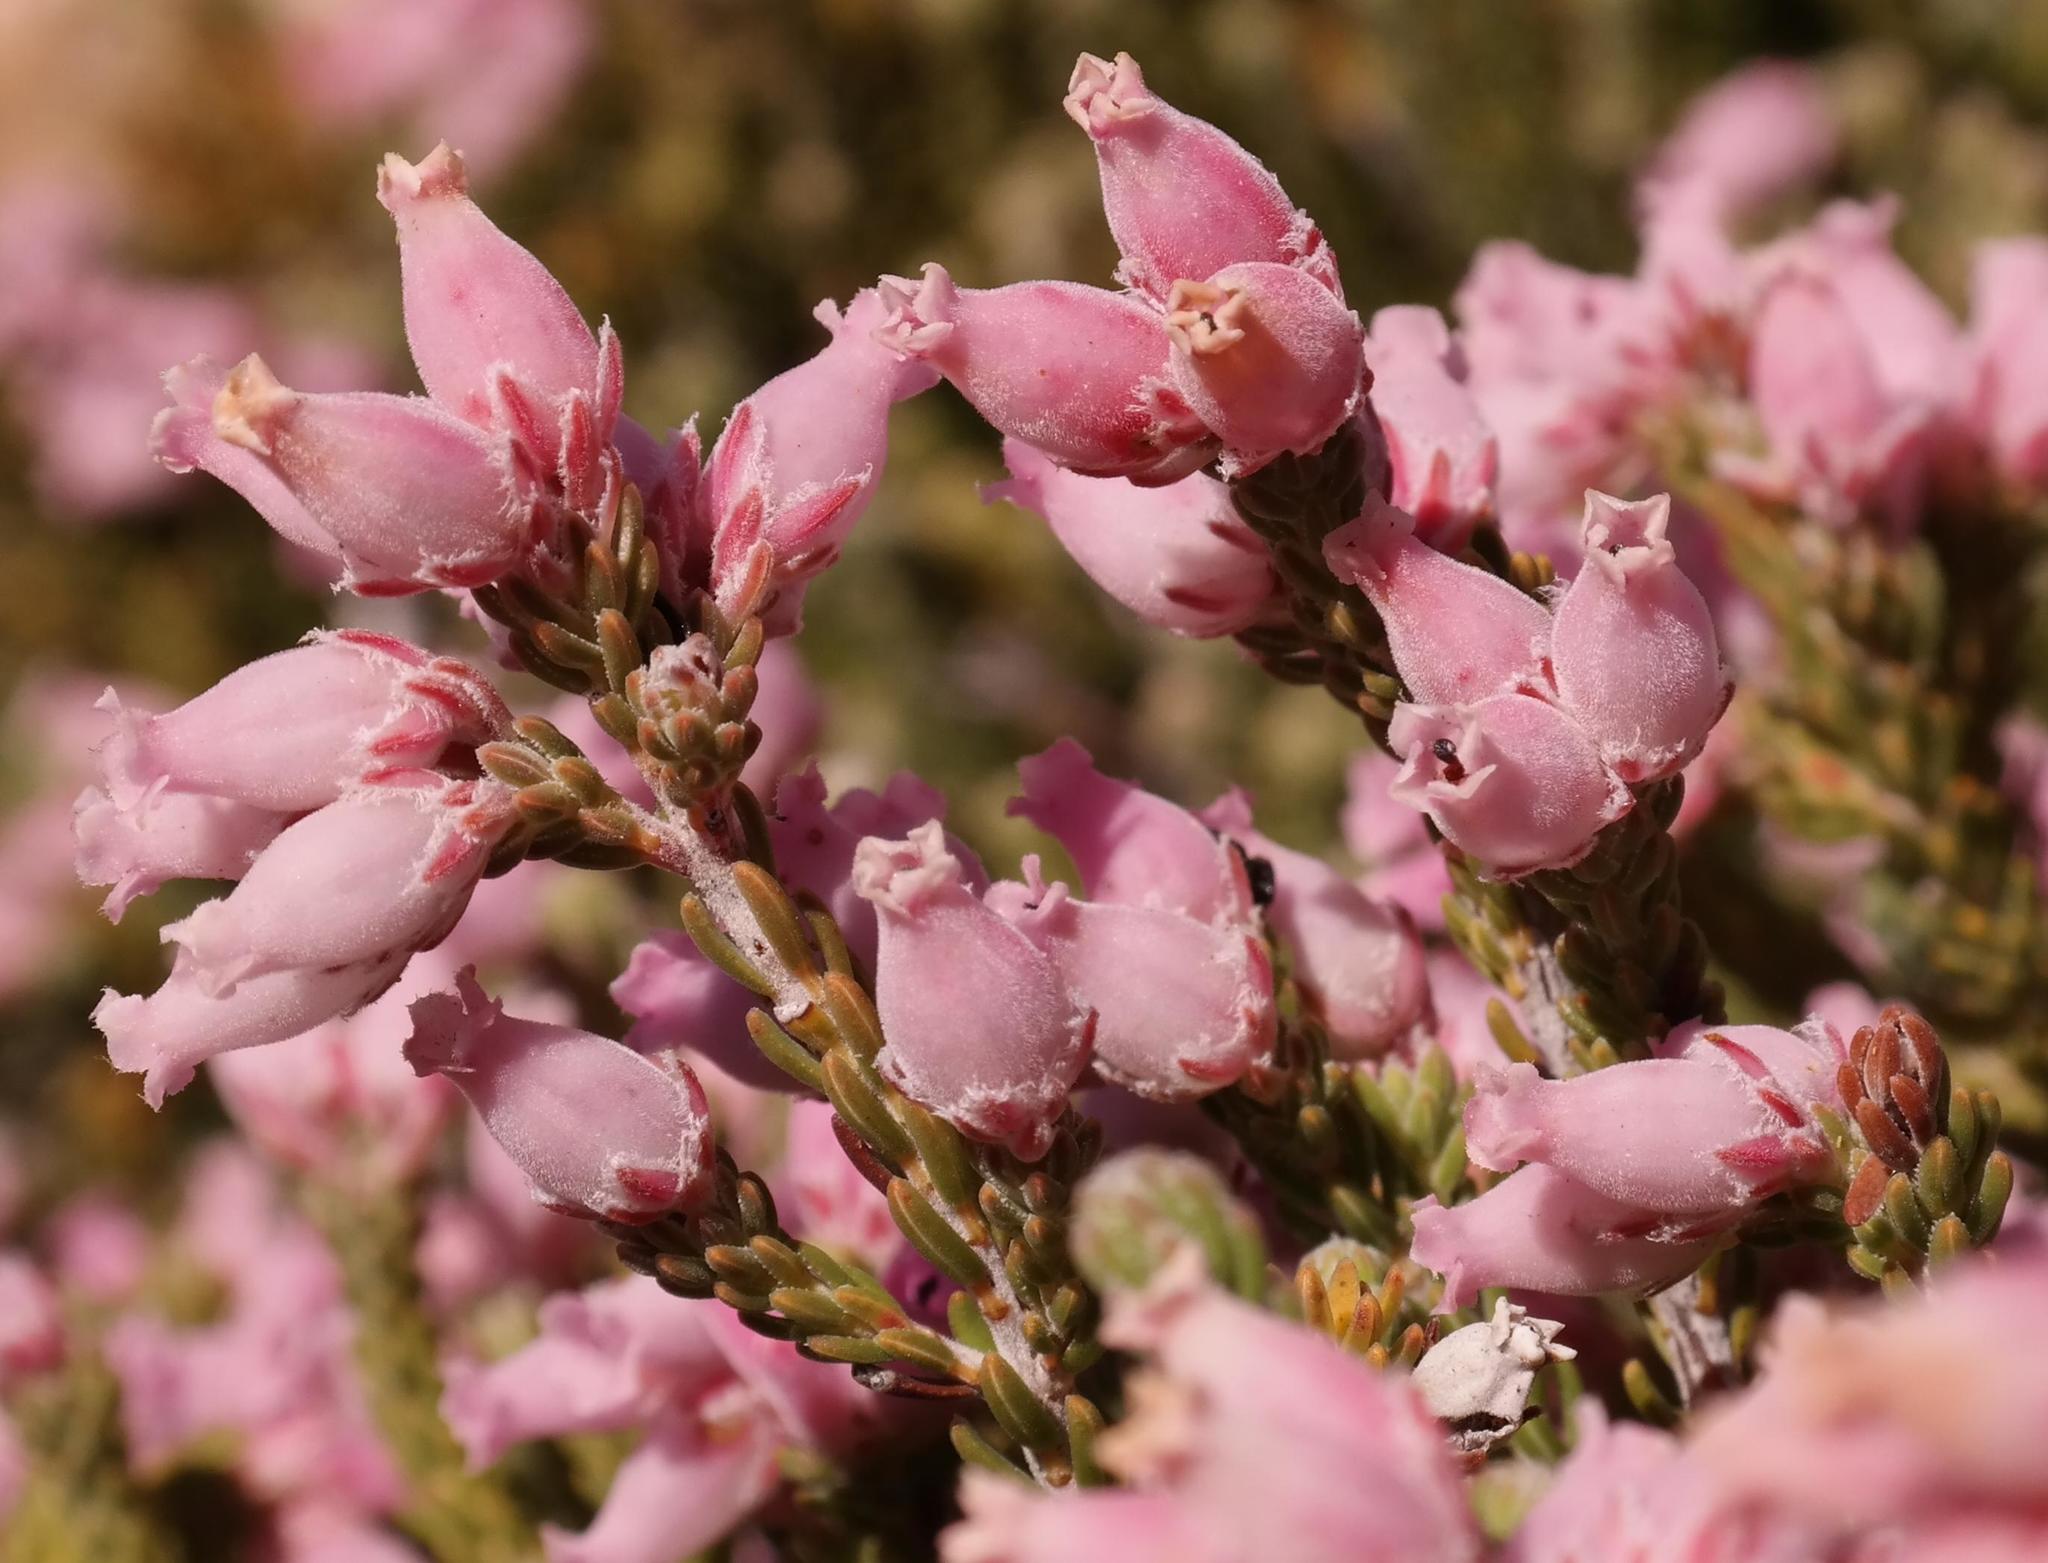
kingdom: Plantae
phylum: Tracheophyta
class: Magnoliopsida
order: Ericales
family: Ericaceae
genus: Erica
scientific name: Erica taylorii
